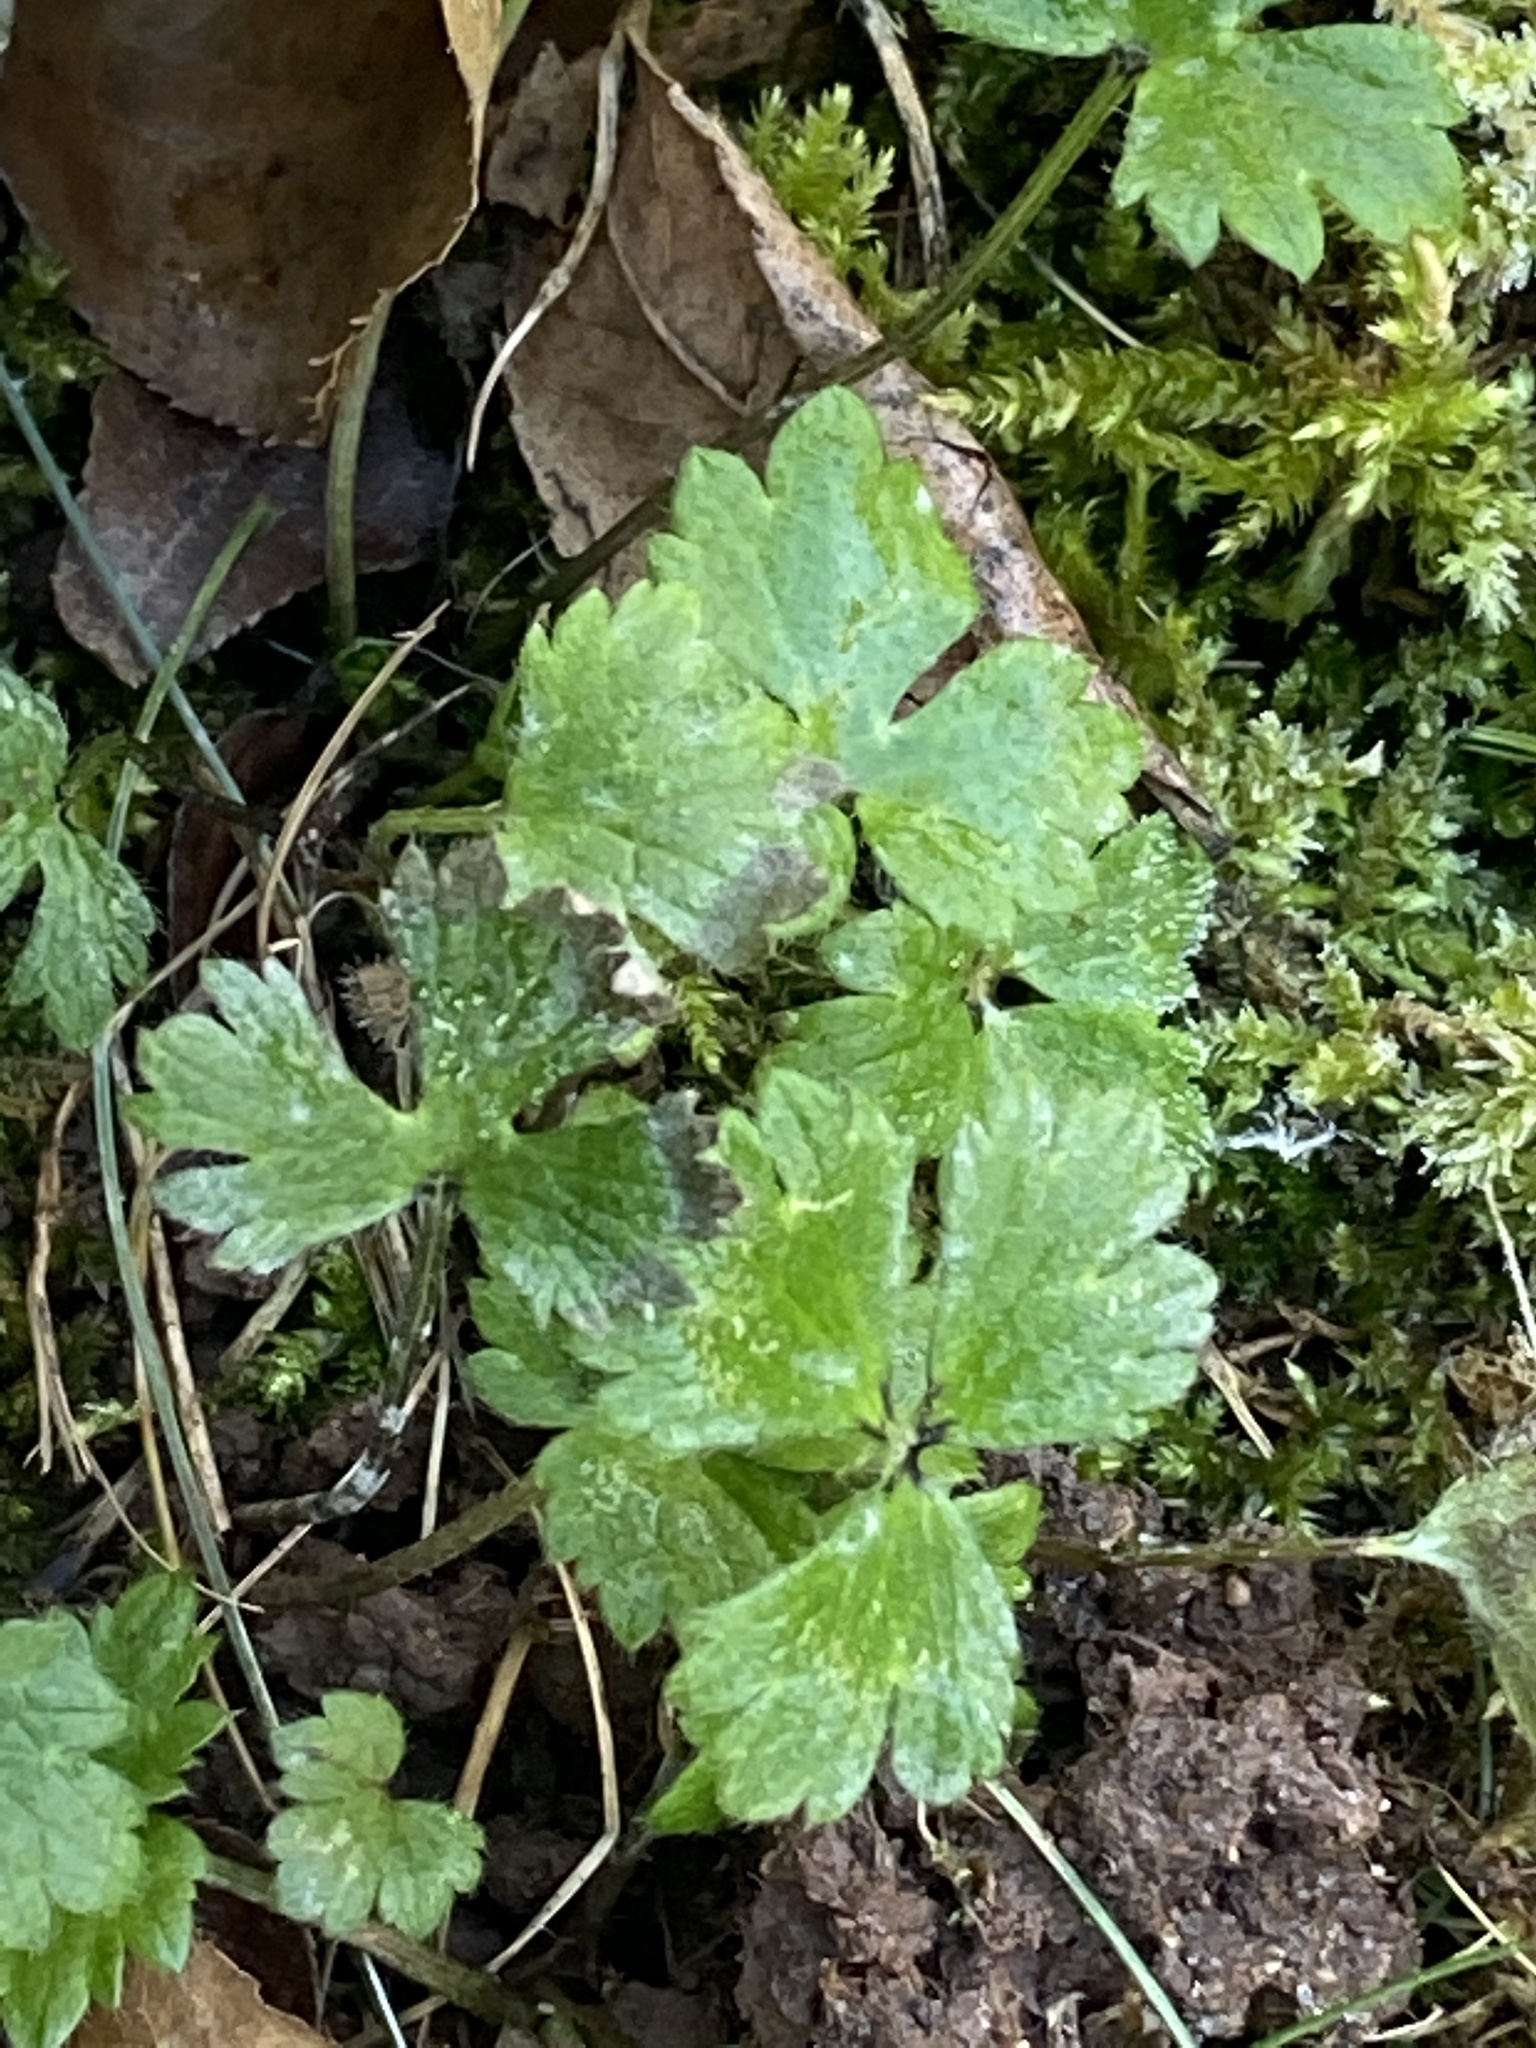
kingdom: Plantae
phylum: Tracheophyta
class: Magnoliopsida
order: Ranunculales
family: Ranunculaceae
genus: Ranunculus
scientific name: Ranunculus repens
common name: Creeping buttercup
